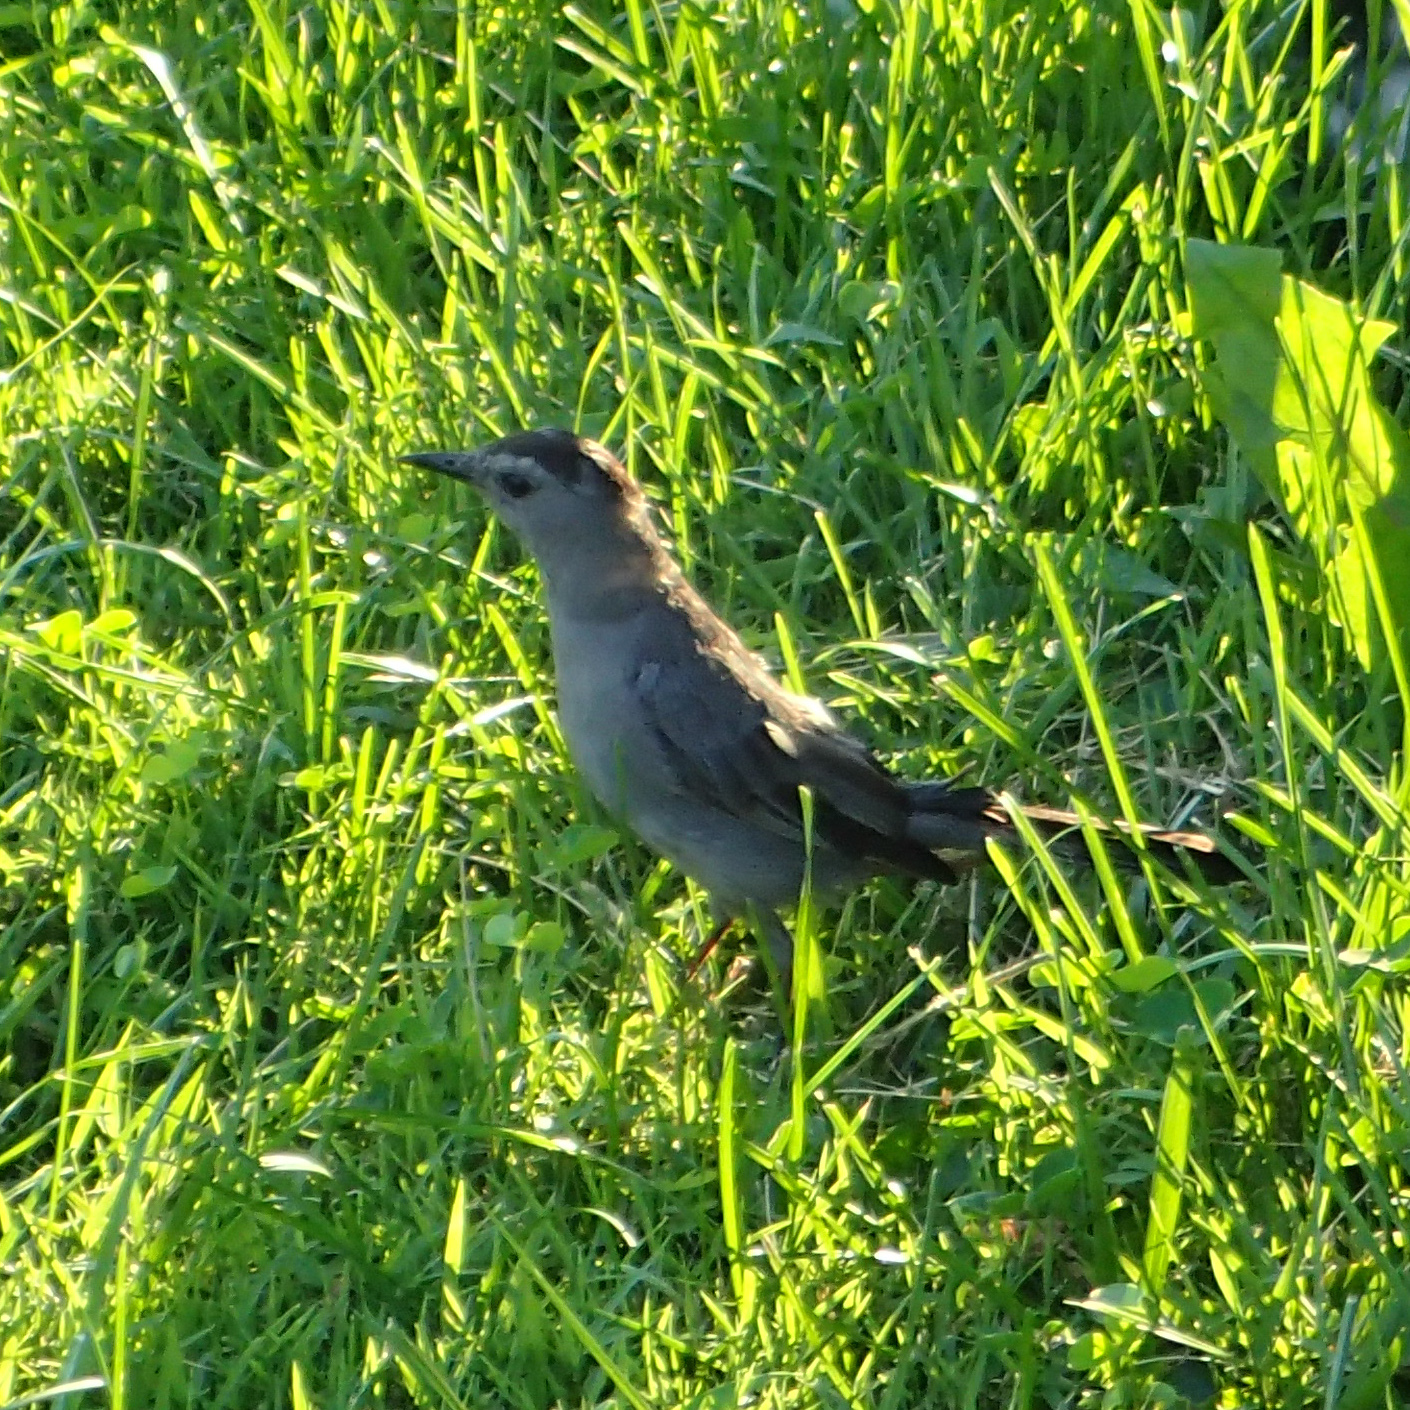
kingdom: Animalia
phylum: Chordata
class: Aves
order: Passeriformes
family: Mimidae
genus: Dumetella
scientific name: Dumetella carolinensis
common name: Gray catbird
